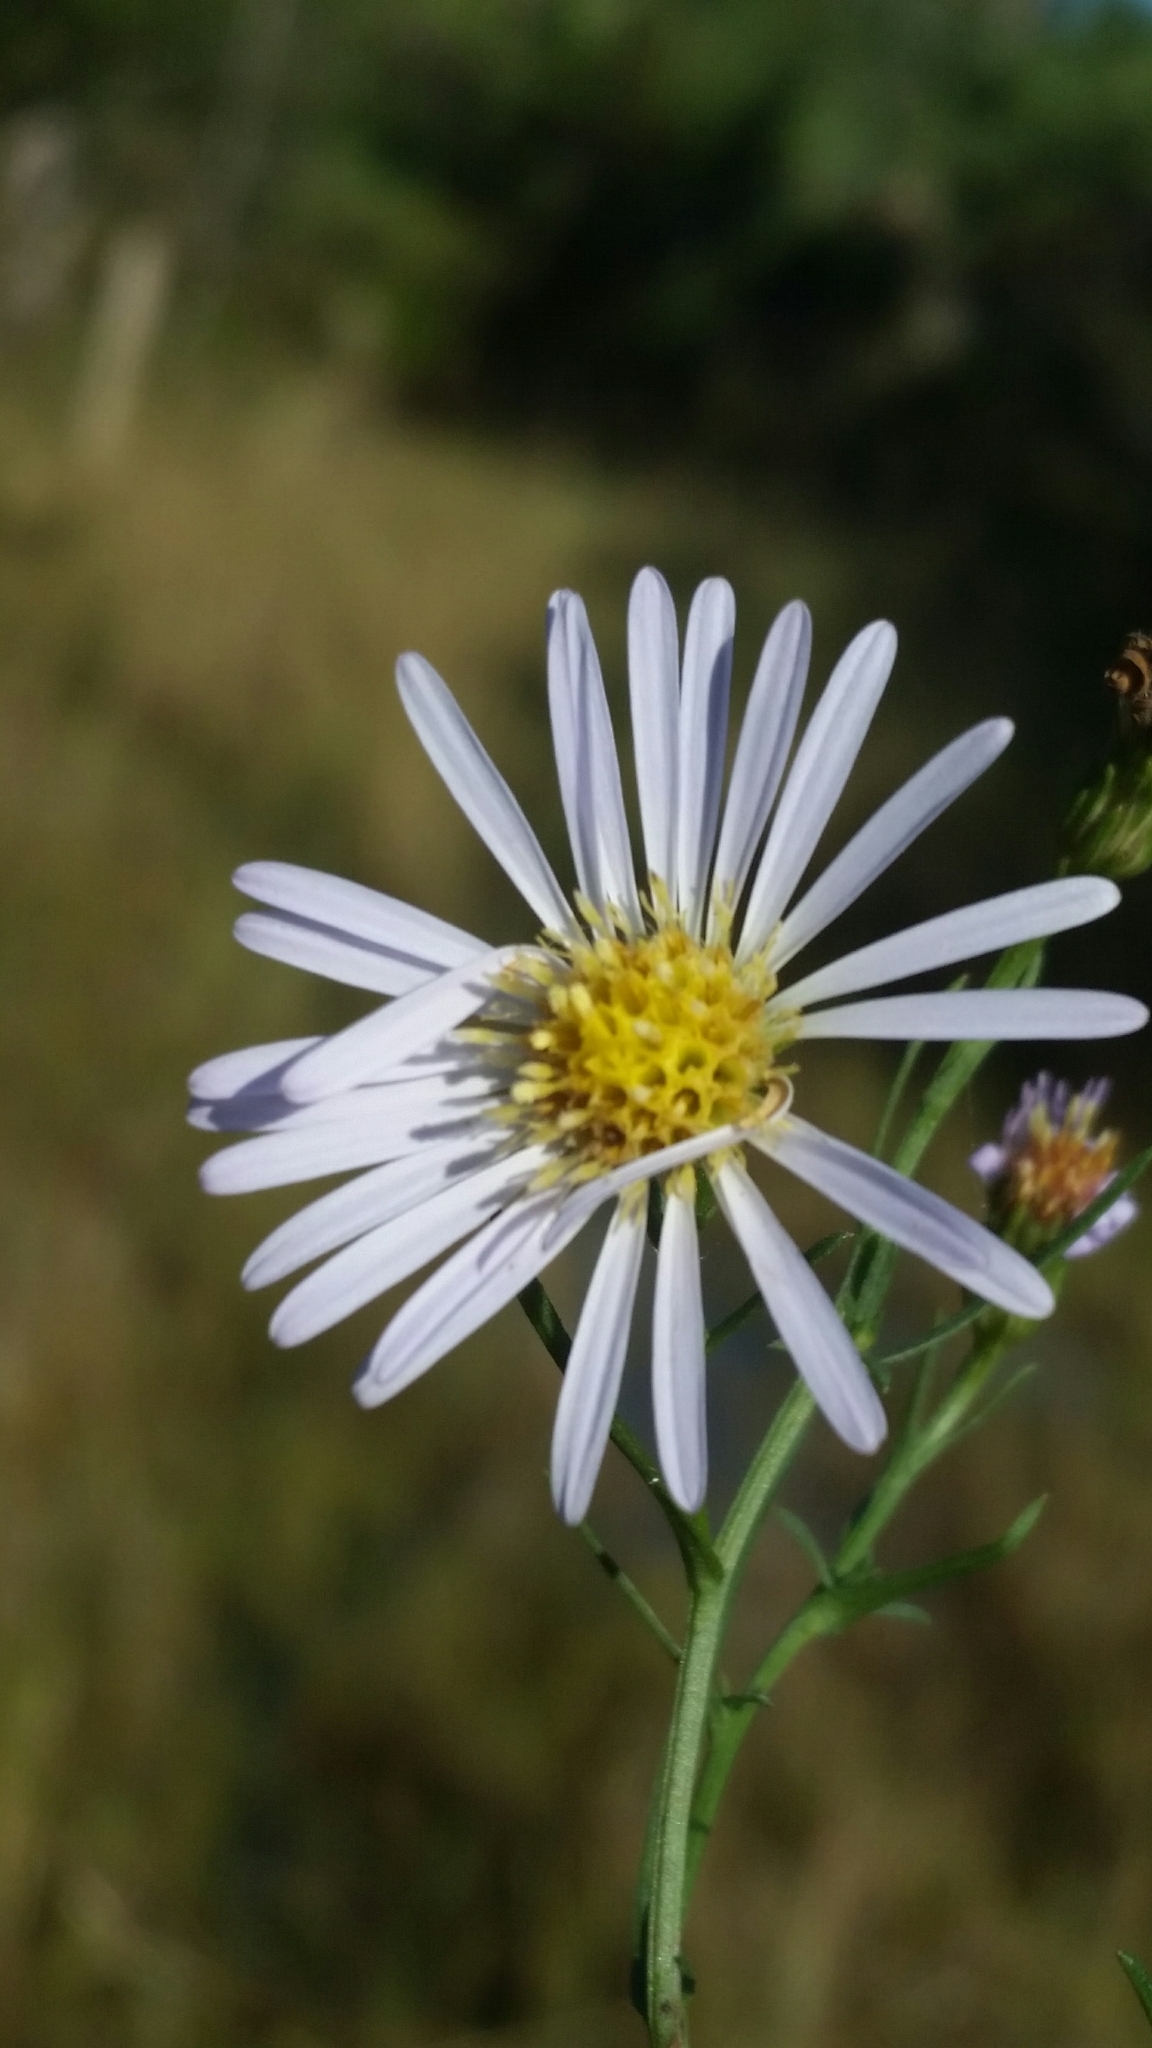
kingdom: Plantae
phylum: Tracheophyta
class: Magnoliopsida
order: Asterales
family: Asteraceae
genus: Symphyotrichum
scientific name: Symphyotrichum simmondsii
